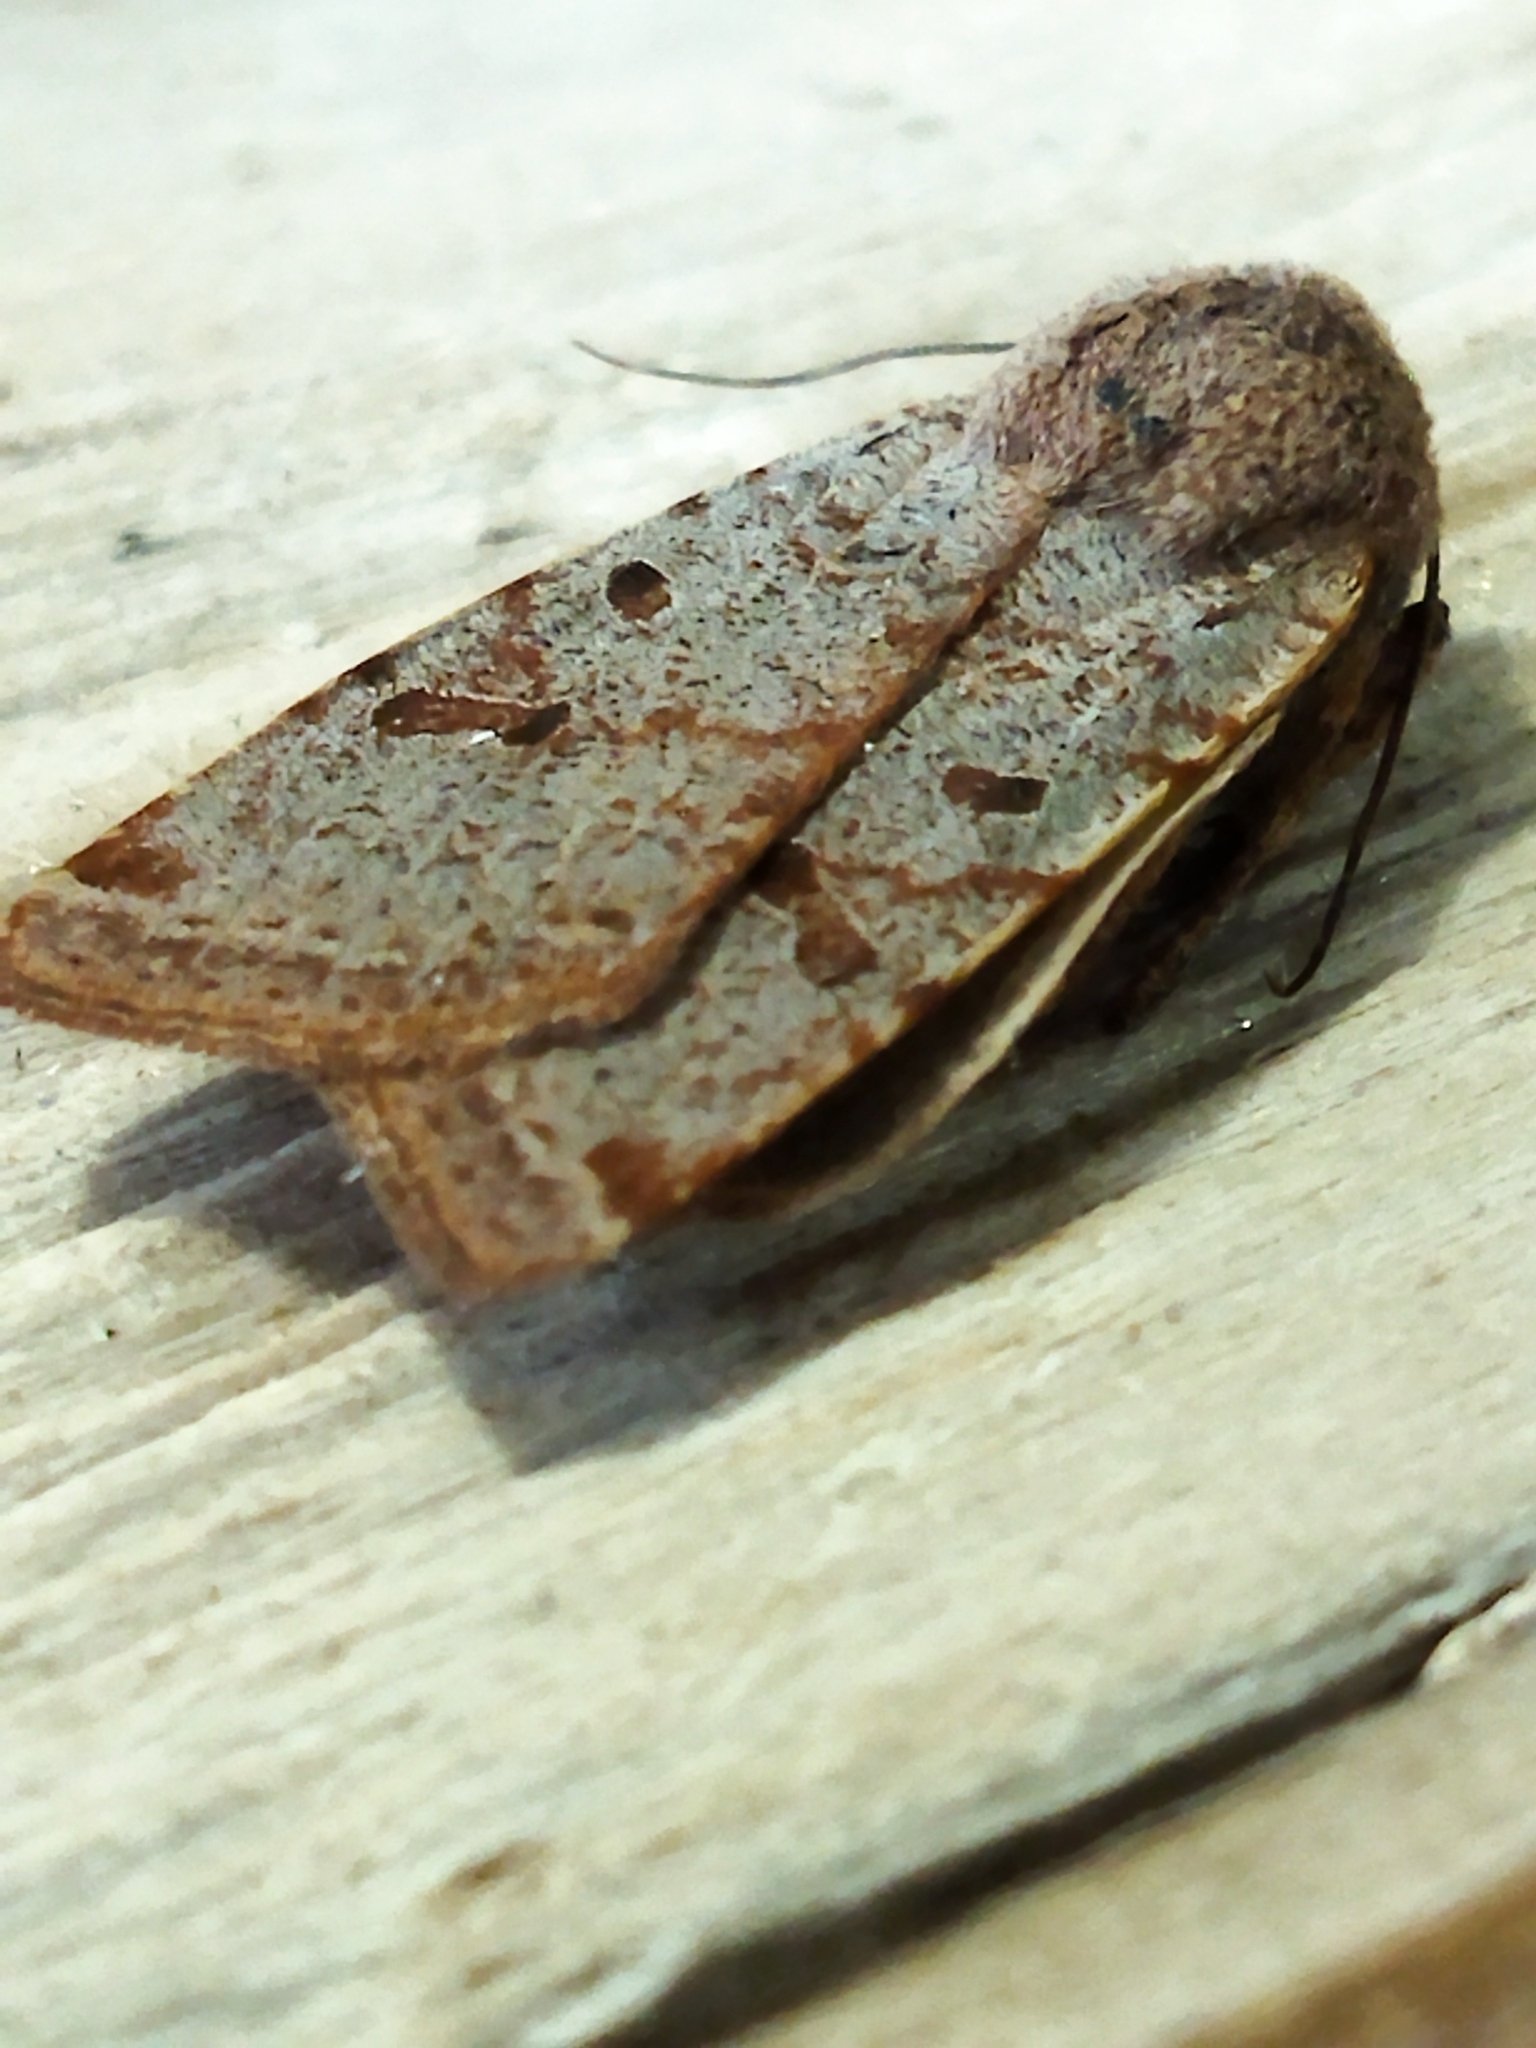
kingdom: Animalia
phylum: Arthropoda
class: Insecta
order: Lepidoptera
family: Noctuidae
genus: Agrochola
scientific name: Agrochola lychnidis
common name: Beaded chestnut
